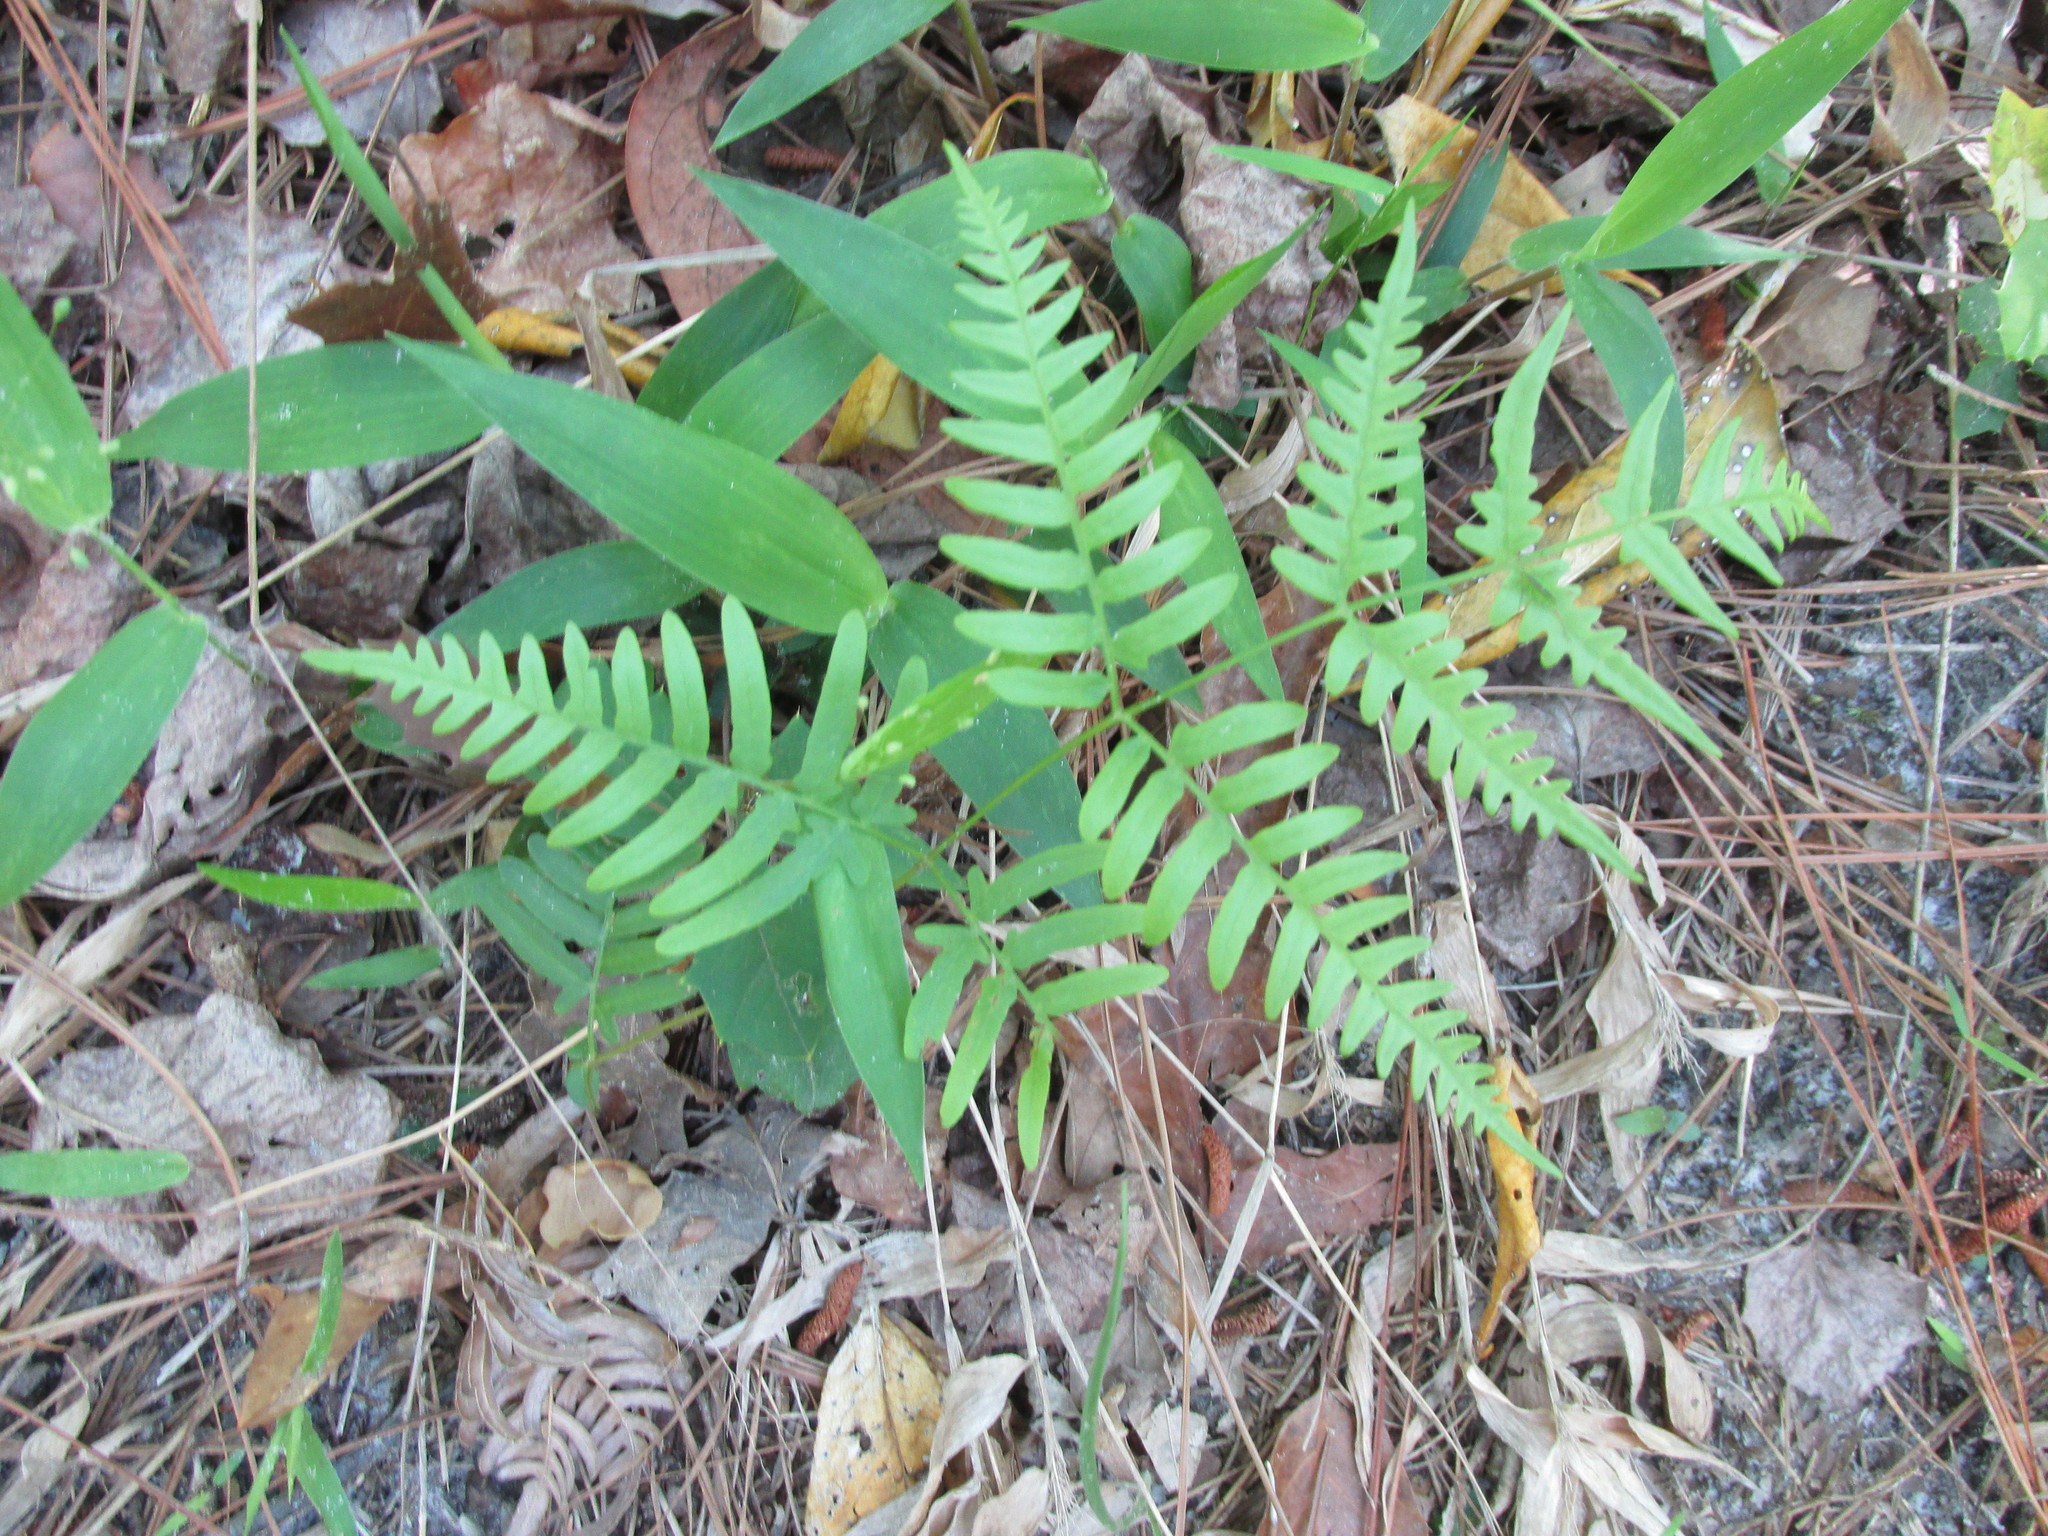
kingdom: Plantae
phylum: Tracheophyta
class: Polypodiopsida
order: Polypodiales
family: Dennstaedtiaceae
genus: Pteridium
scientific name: Pteridium aquilinum
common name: Bracken
